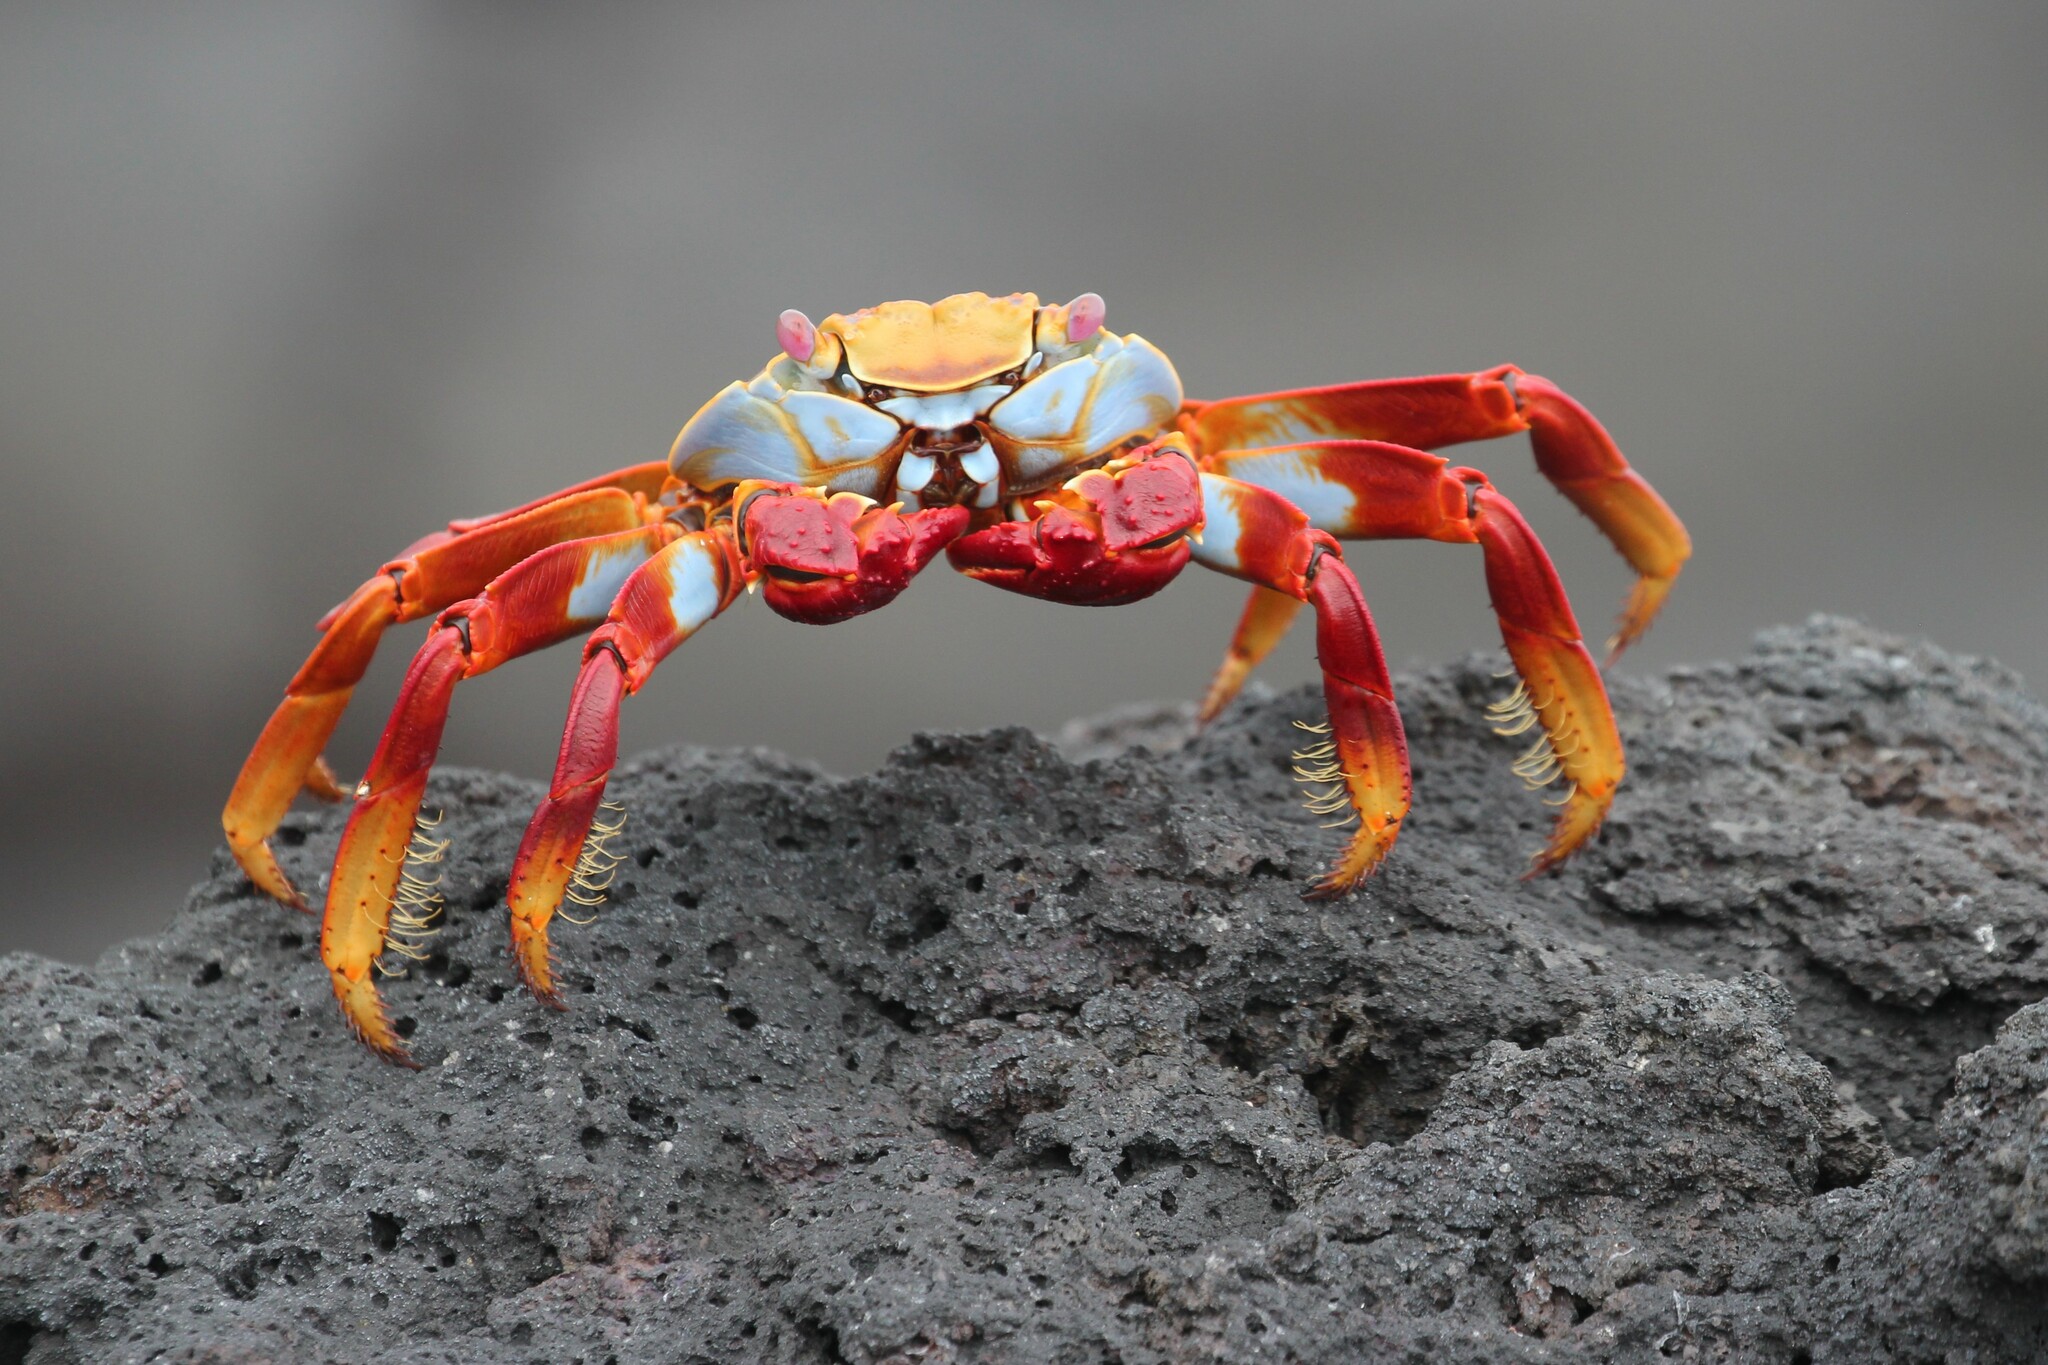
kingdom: Animalia
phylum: Arthropoda
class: Malacostraca
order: Decapoda
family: Grapsidae
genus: Grapsus
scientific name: Grapsus grapsus
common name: Sally lightfoot
